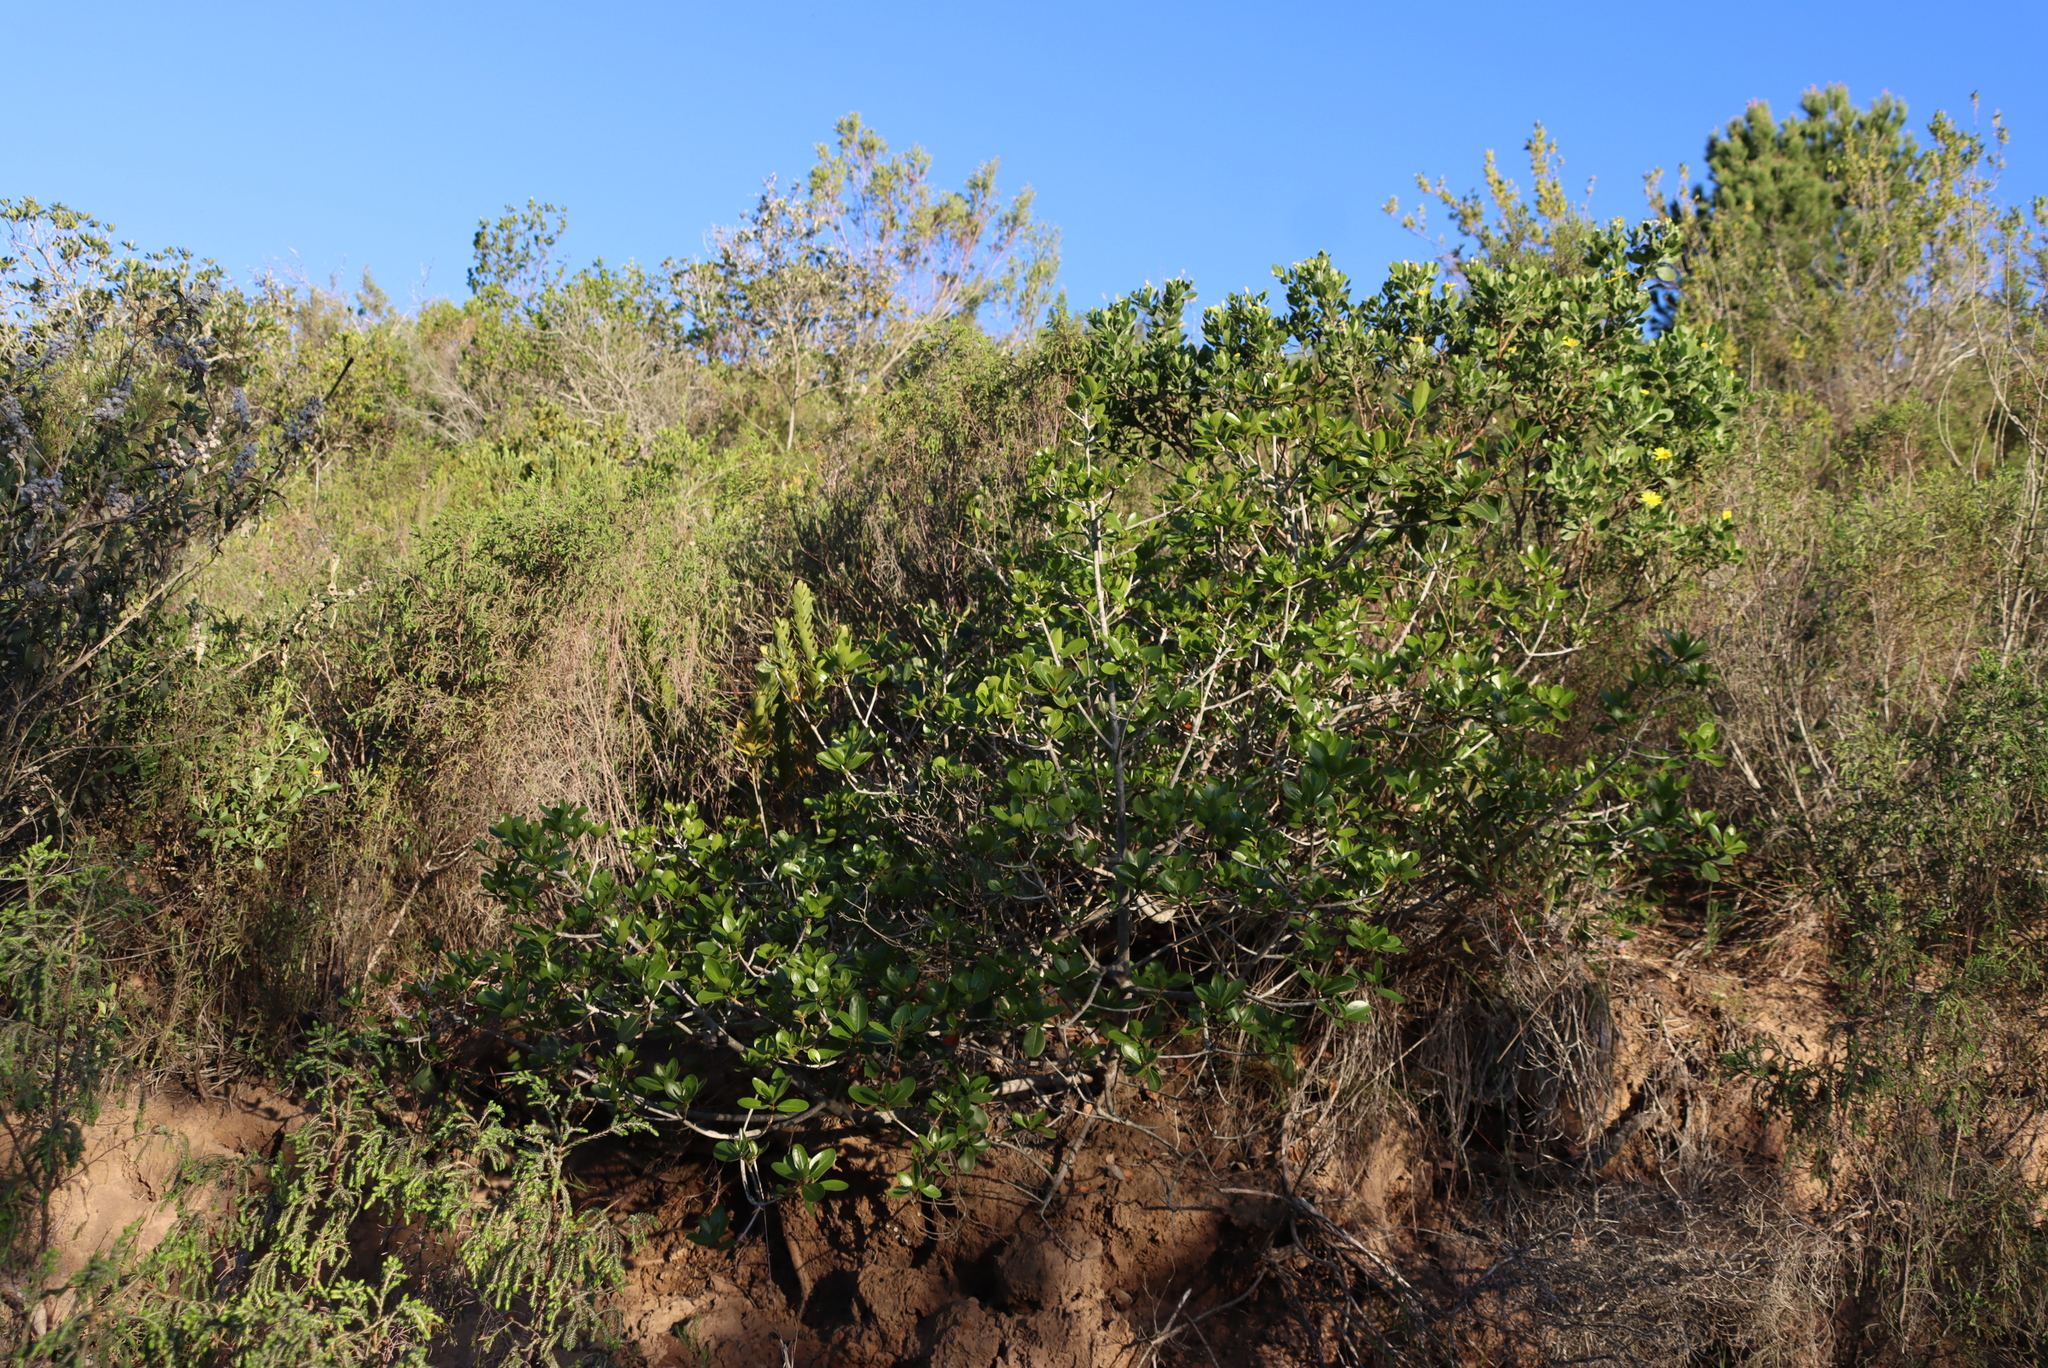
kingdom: Plantae
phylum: Tracheophyta
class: Magnoliopsida
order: Asterales
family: Asteraceae
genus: Osteospermum
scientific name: Osteospermum moniliferum
